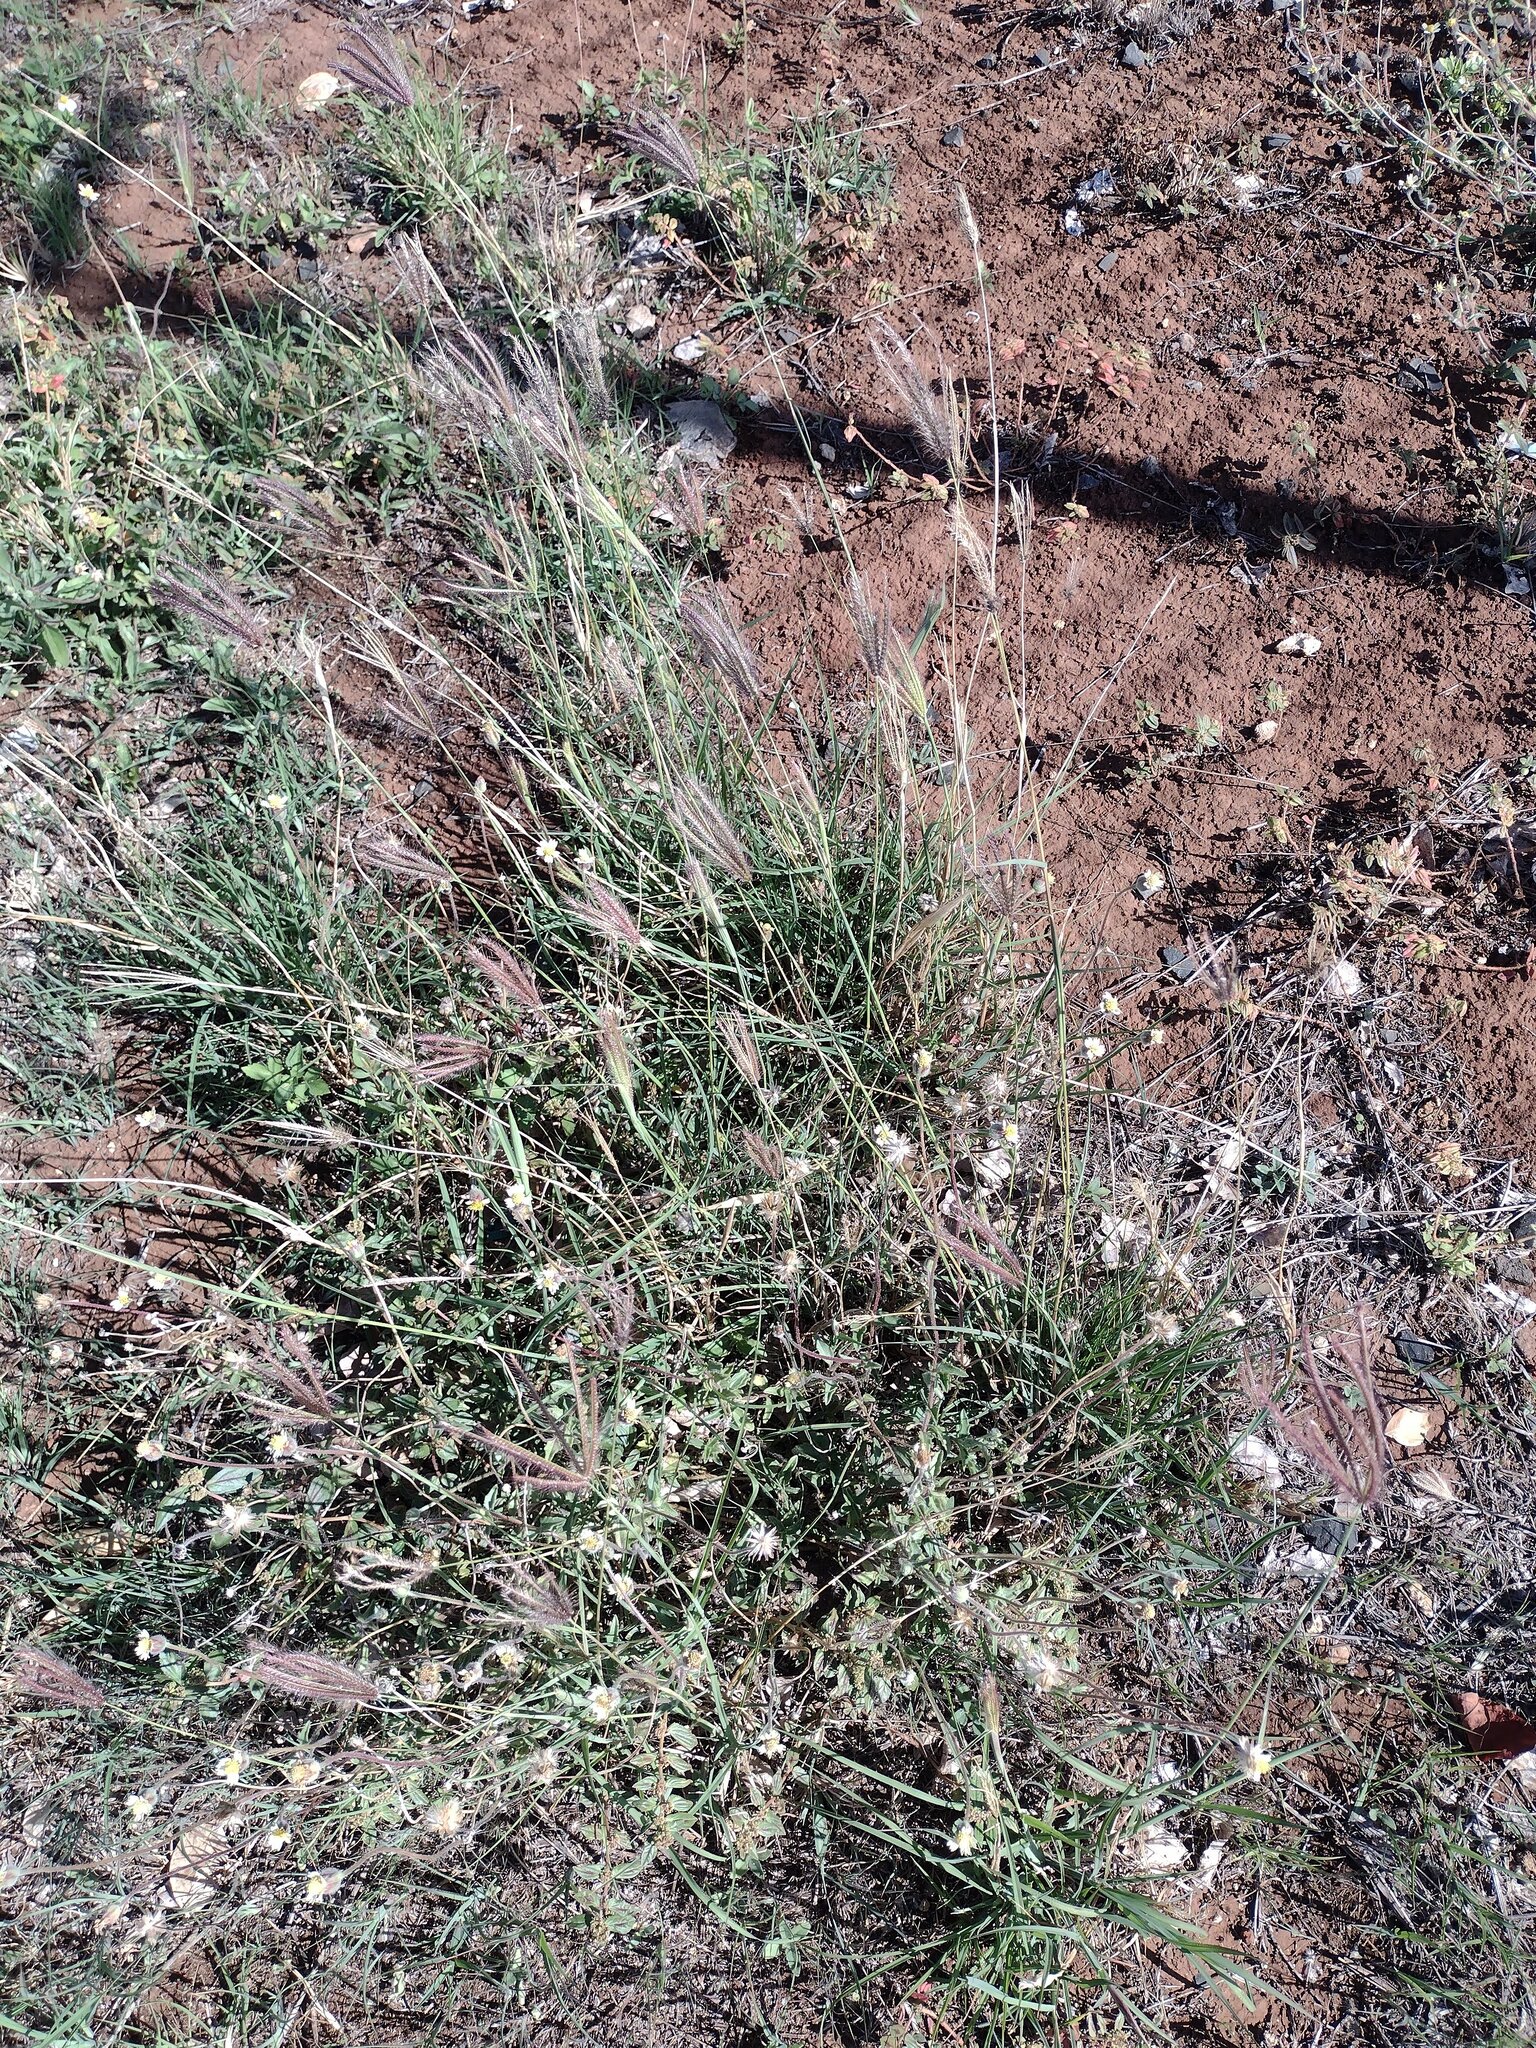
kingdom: Plantae
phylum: Tracheophyta
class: Liliopsida
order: Poales
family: Poaceae
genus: Chloris
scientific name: Chloris barbata
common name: Swollen fingergrass
